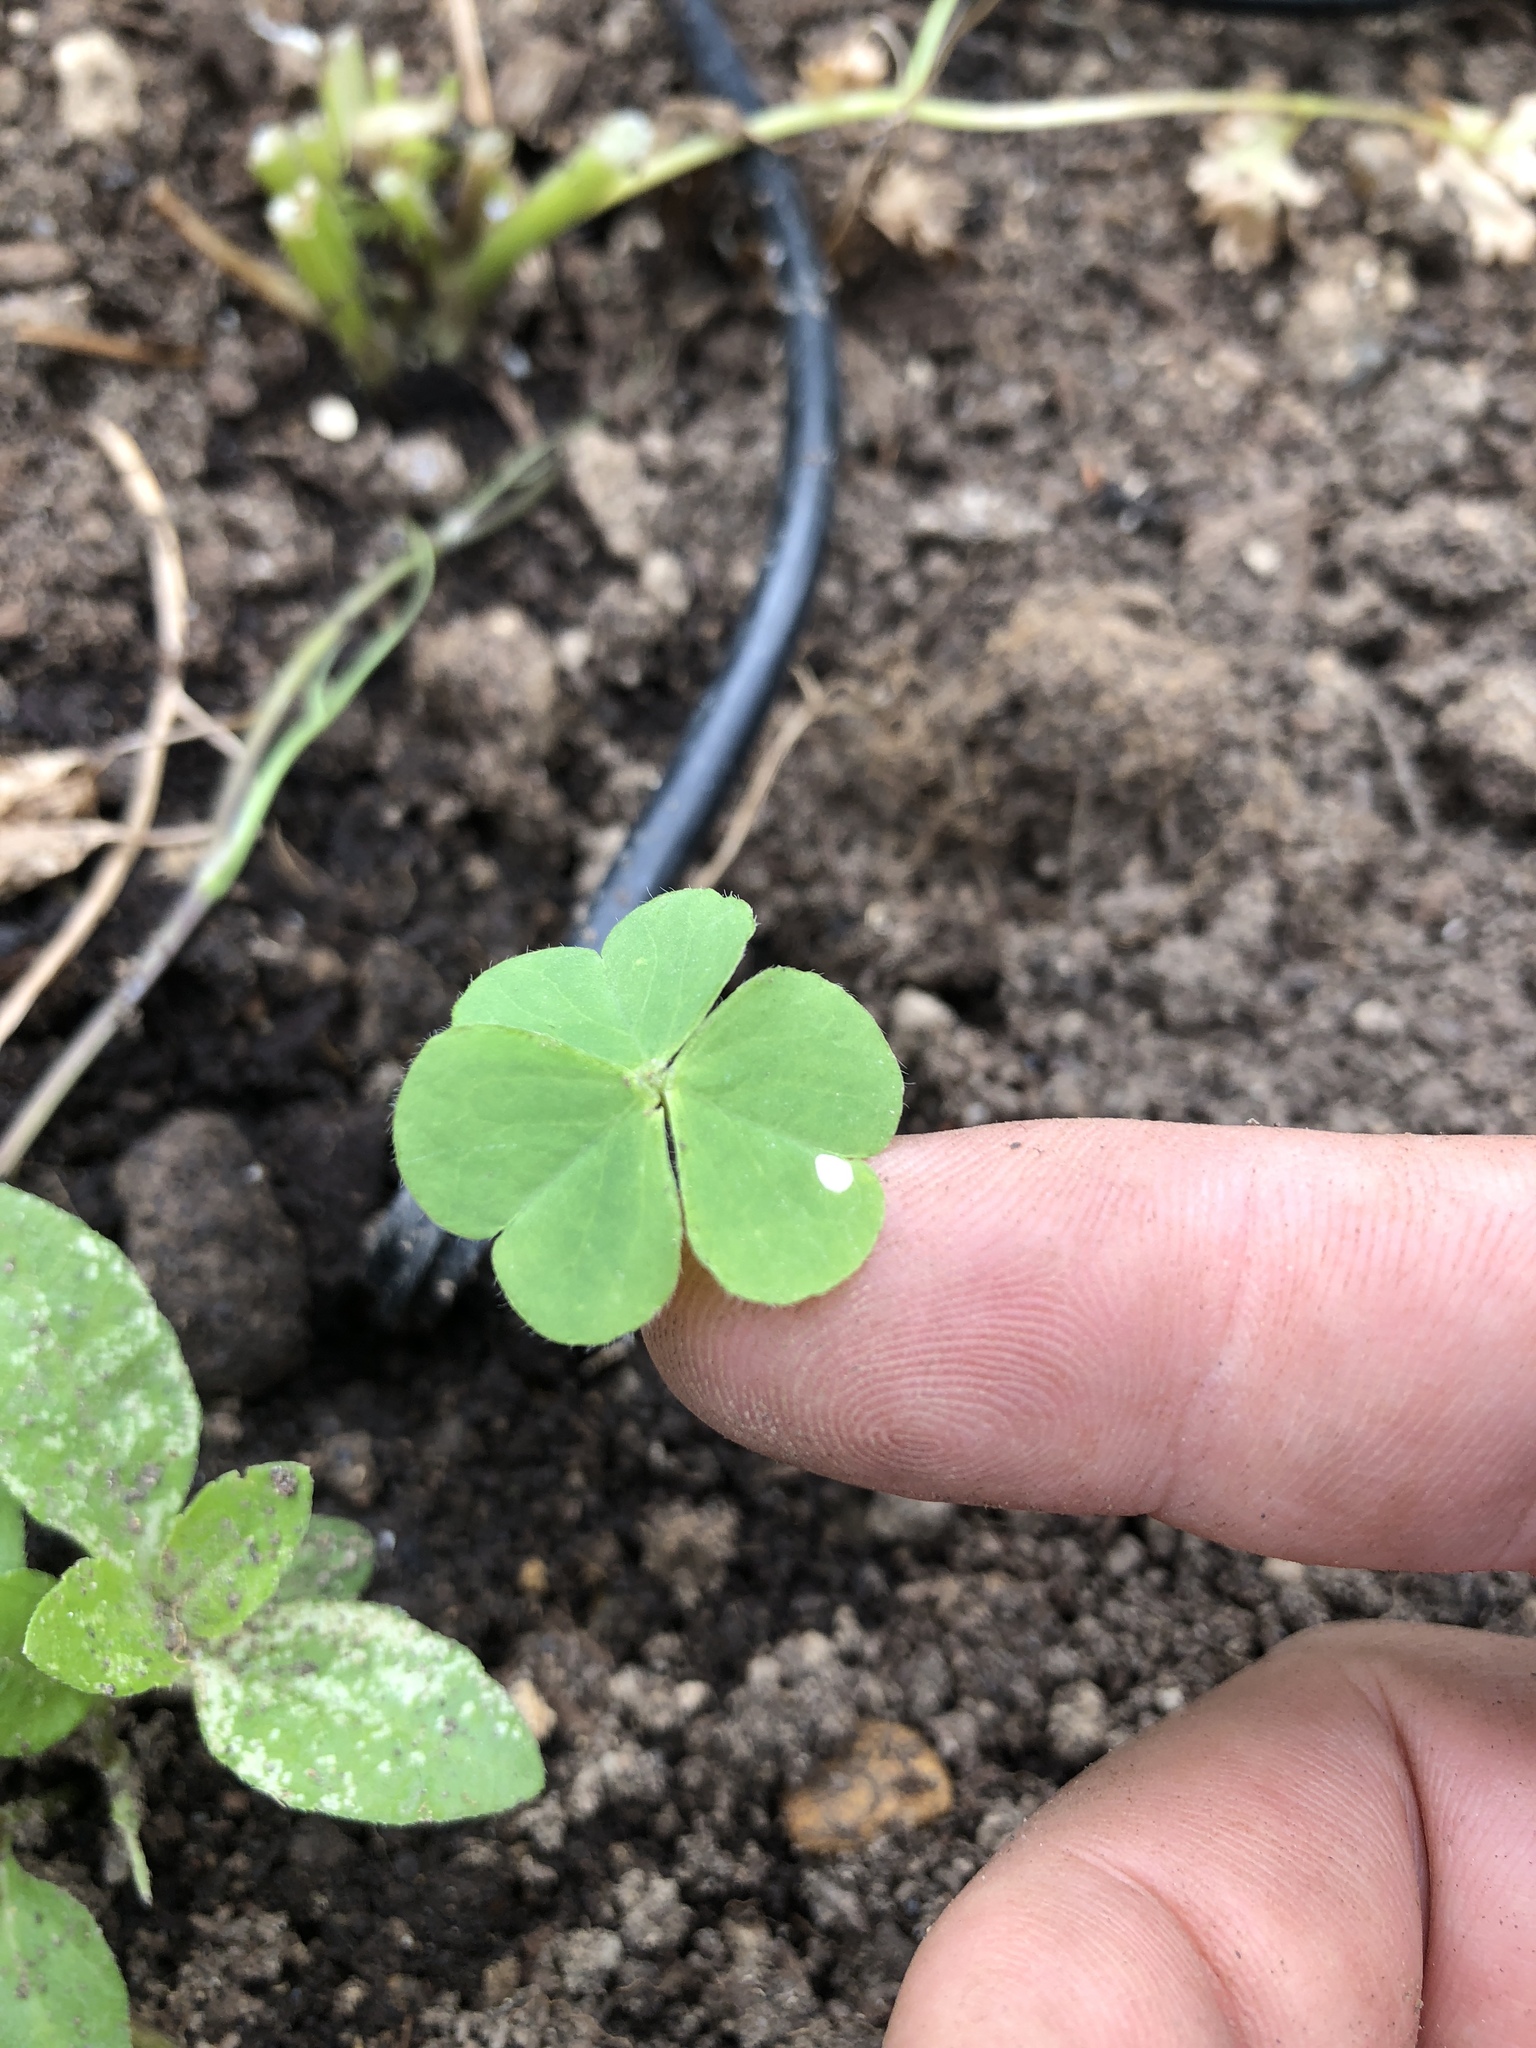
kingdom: Plantae
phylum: Tracheophyta
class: Magnoliopsida
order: Oxalidales
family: Oxalidaceae
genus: Oxalis
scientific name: Oxalis corniculata
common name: Procumbent yellow-sorrel
